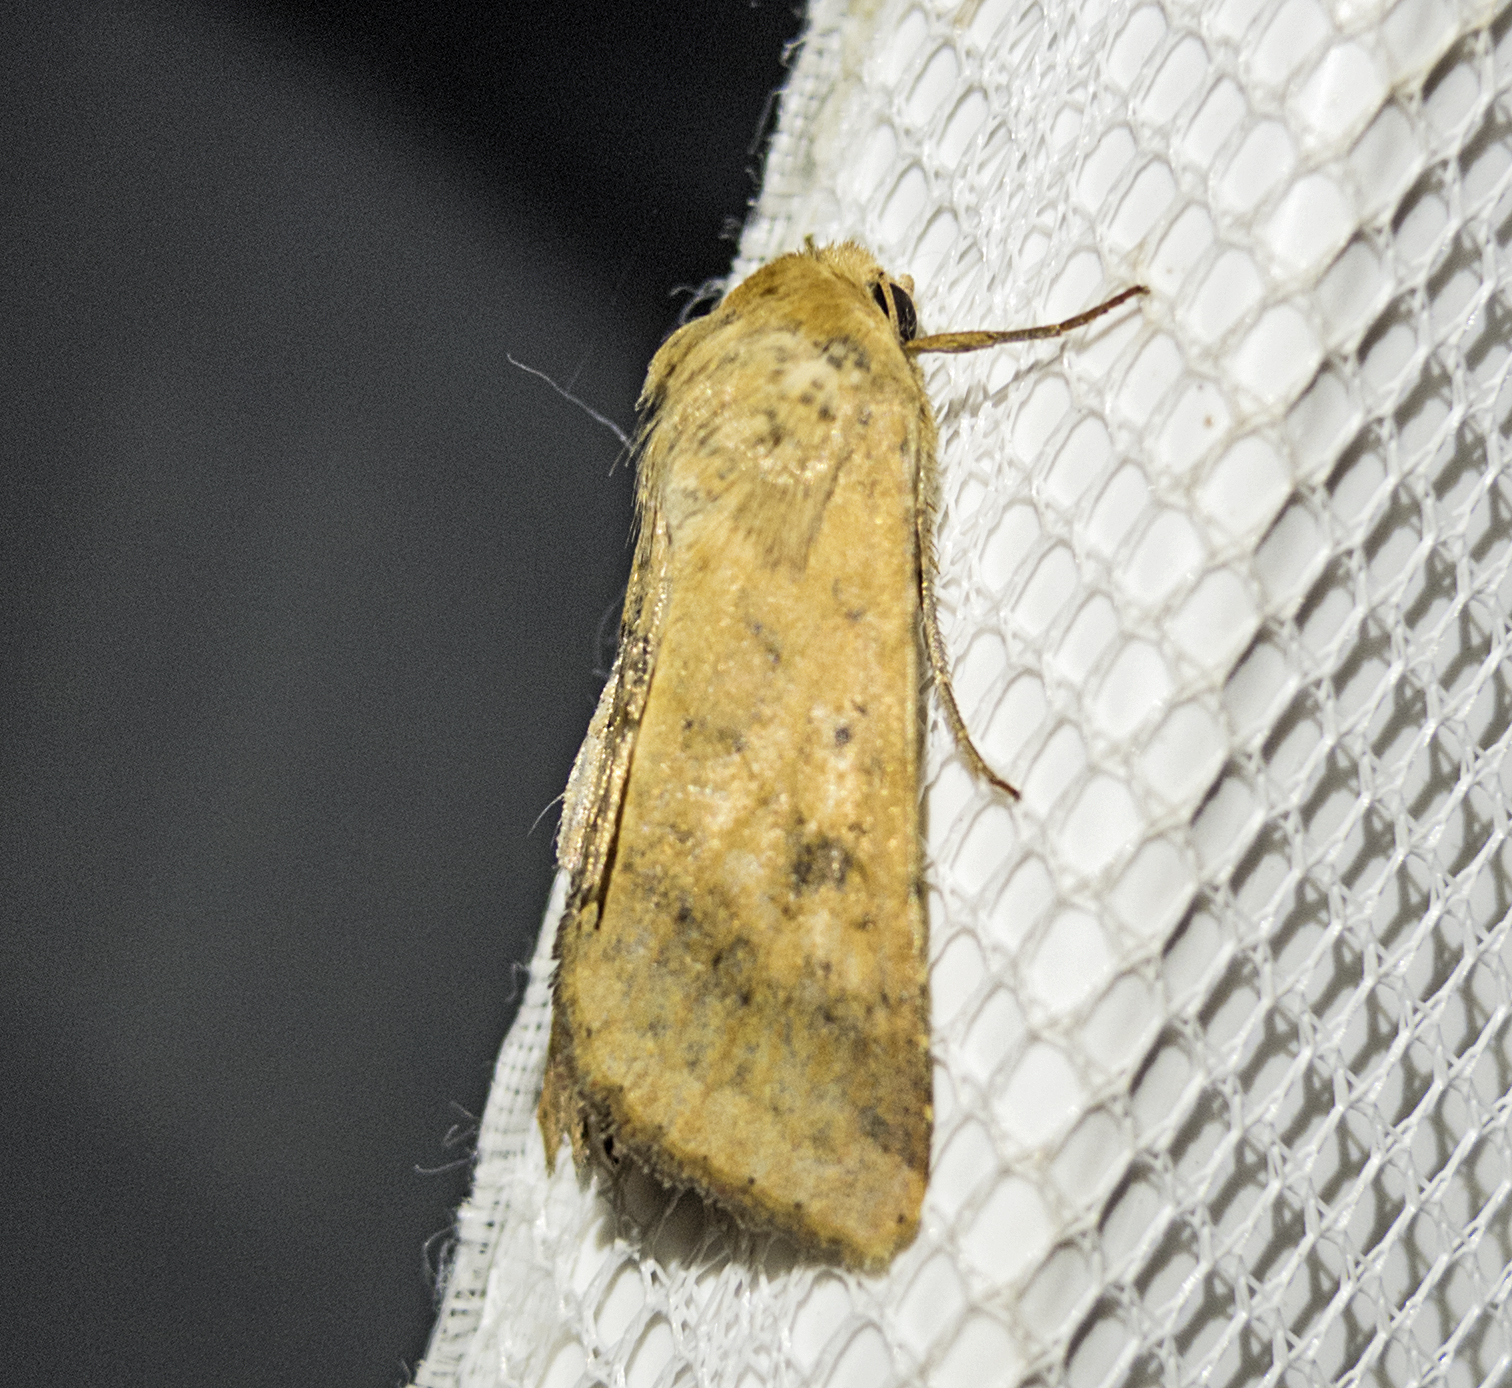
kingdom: Animalia
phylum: Arthropoda
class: Insecta
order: Lepidoptera
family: Noctuidae
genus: Helicoverpa
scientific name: Helicoverpa armigera
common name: Cotton bollworm
